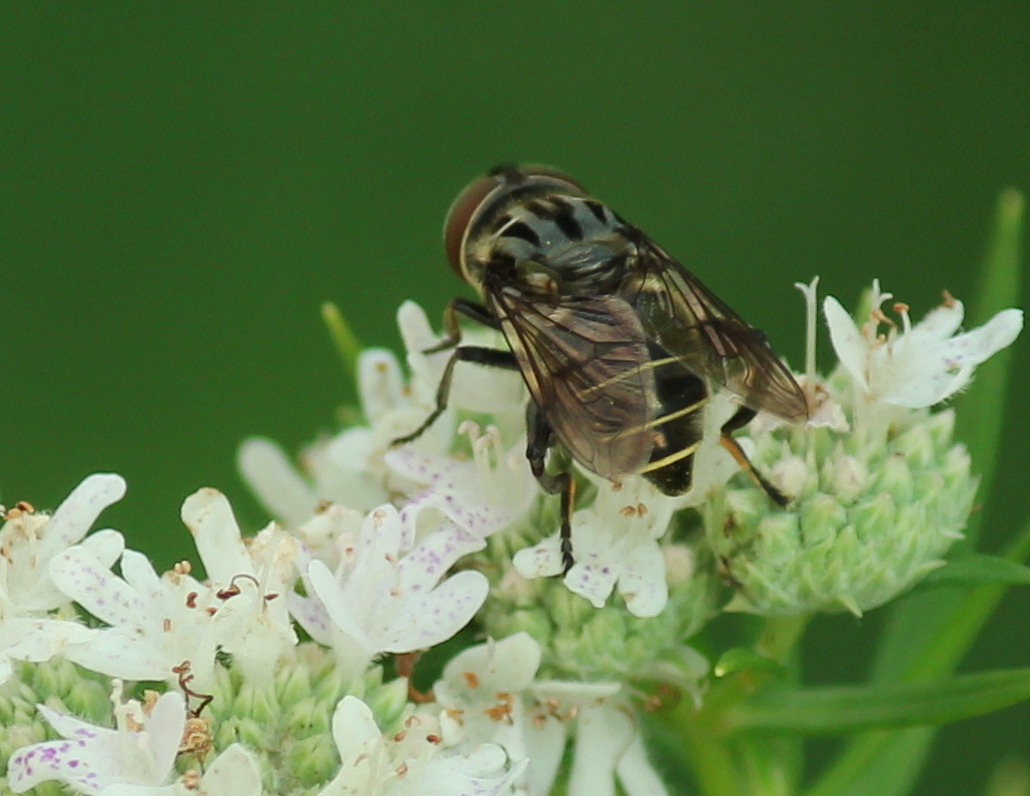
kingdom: Animalia
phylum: Arthropoda
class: Insecta
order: Diptera
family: Syrphidae
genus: Palpada
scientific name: Palpada furcata
